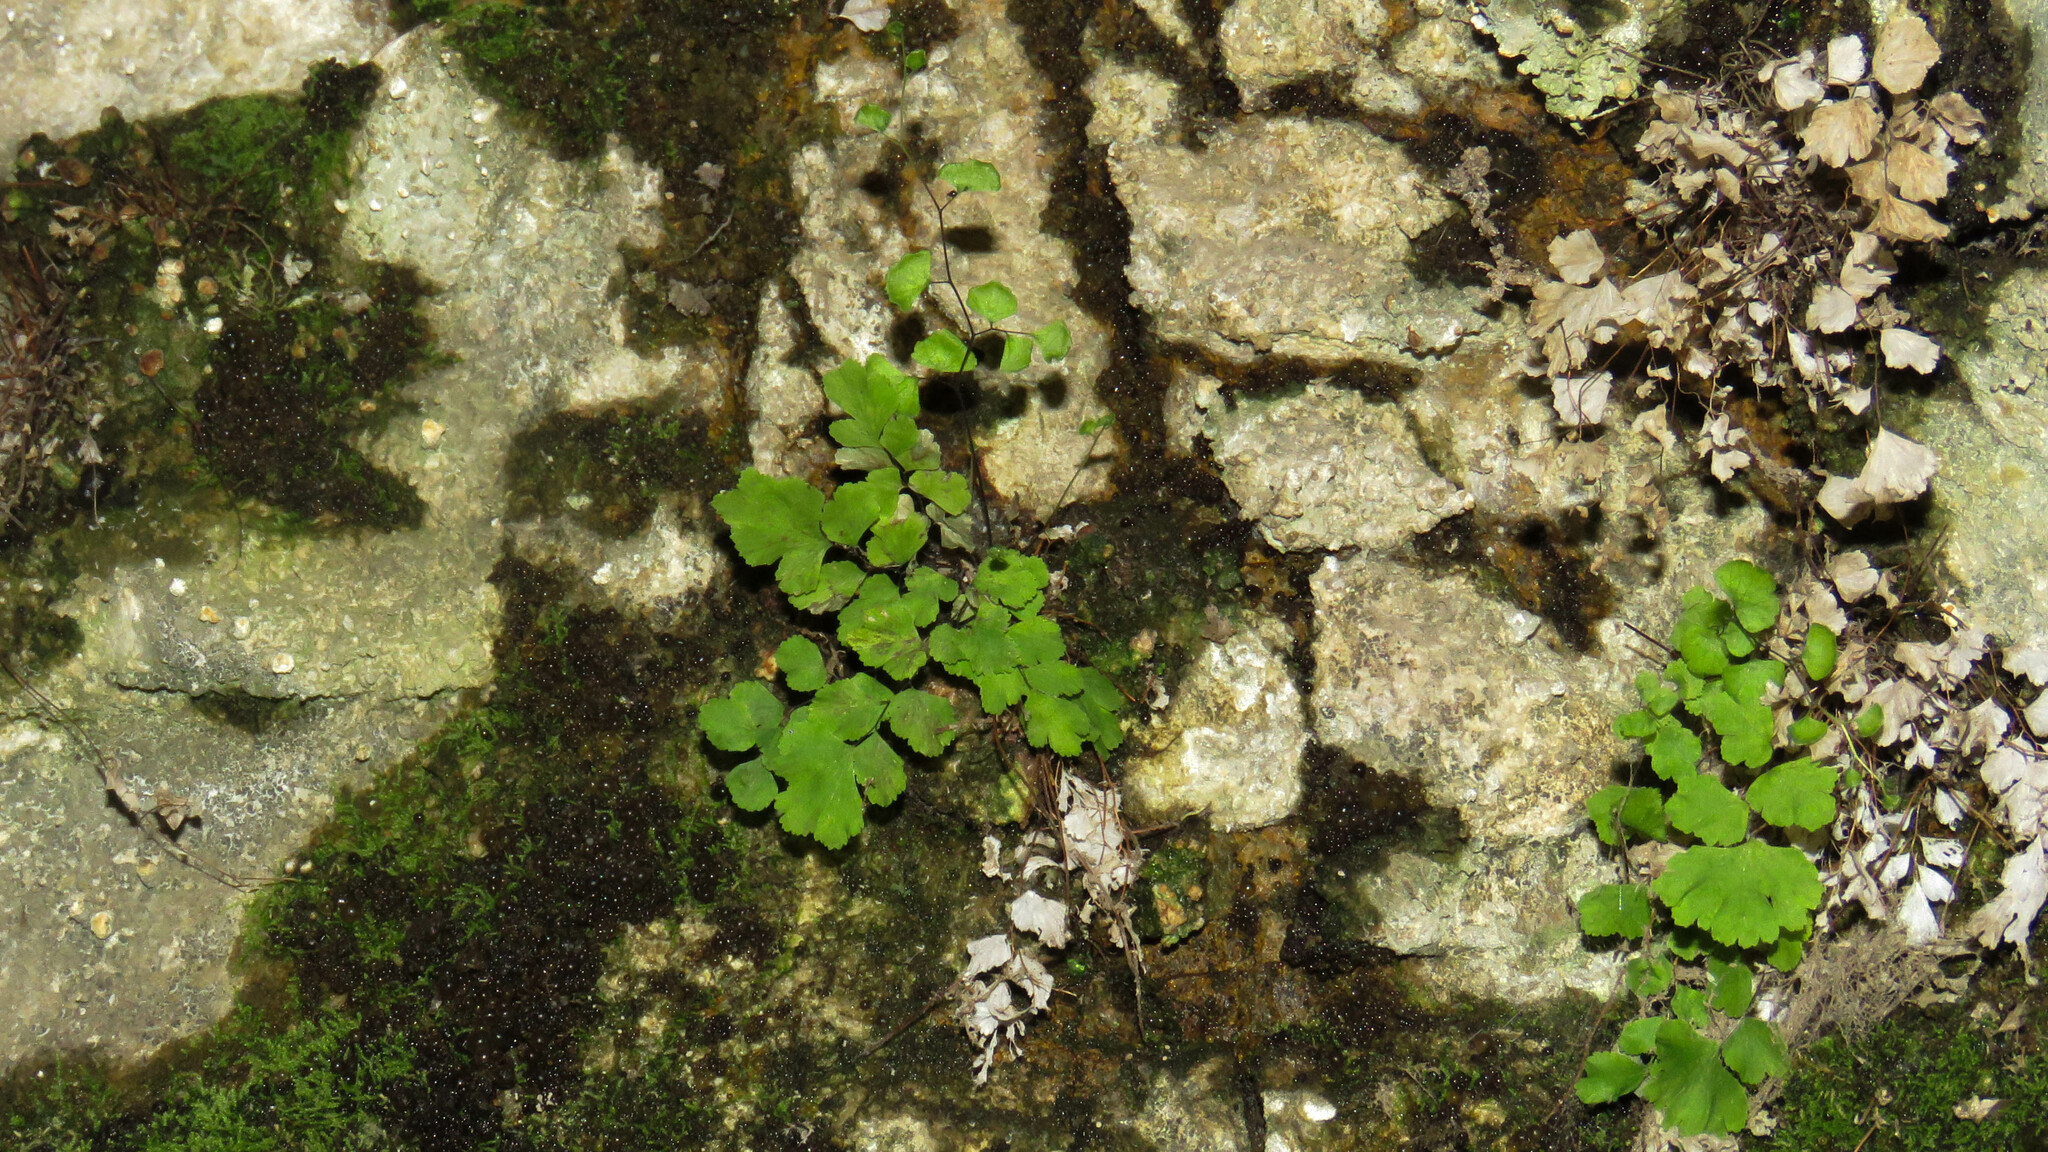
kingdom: Plantae
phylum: Tracheophyta
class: Polypodiopsida
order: Polypodiales
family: Pteridaceae
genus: Adiantum
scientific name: Adiantum chilense
